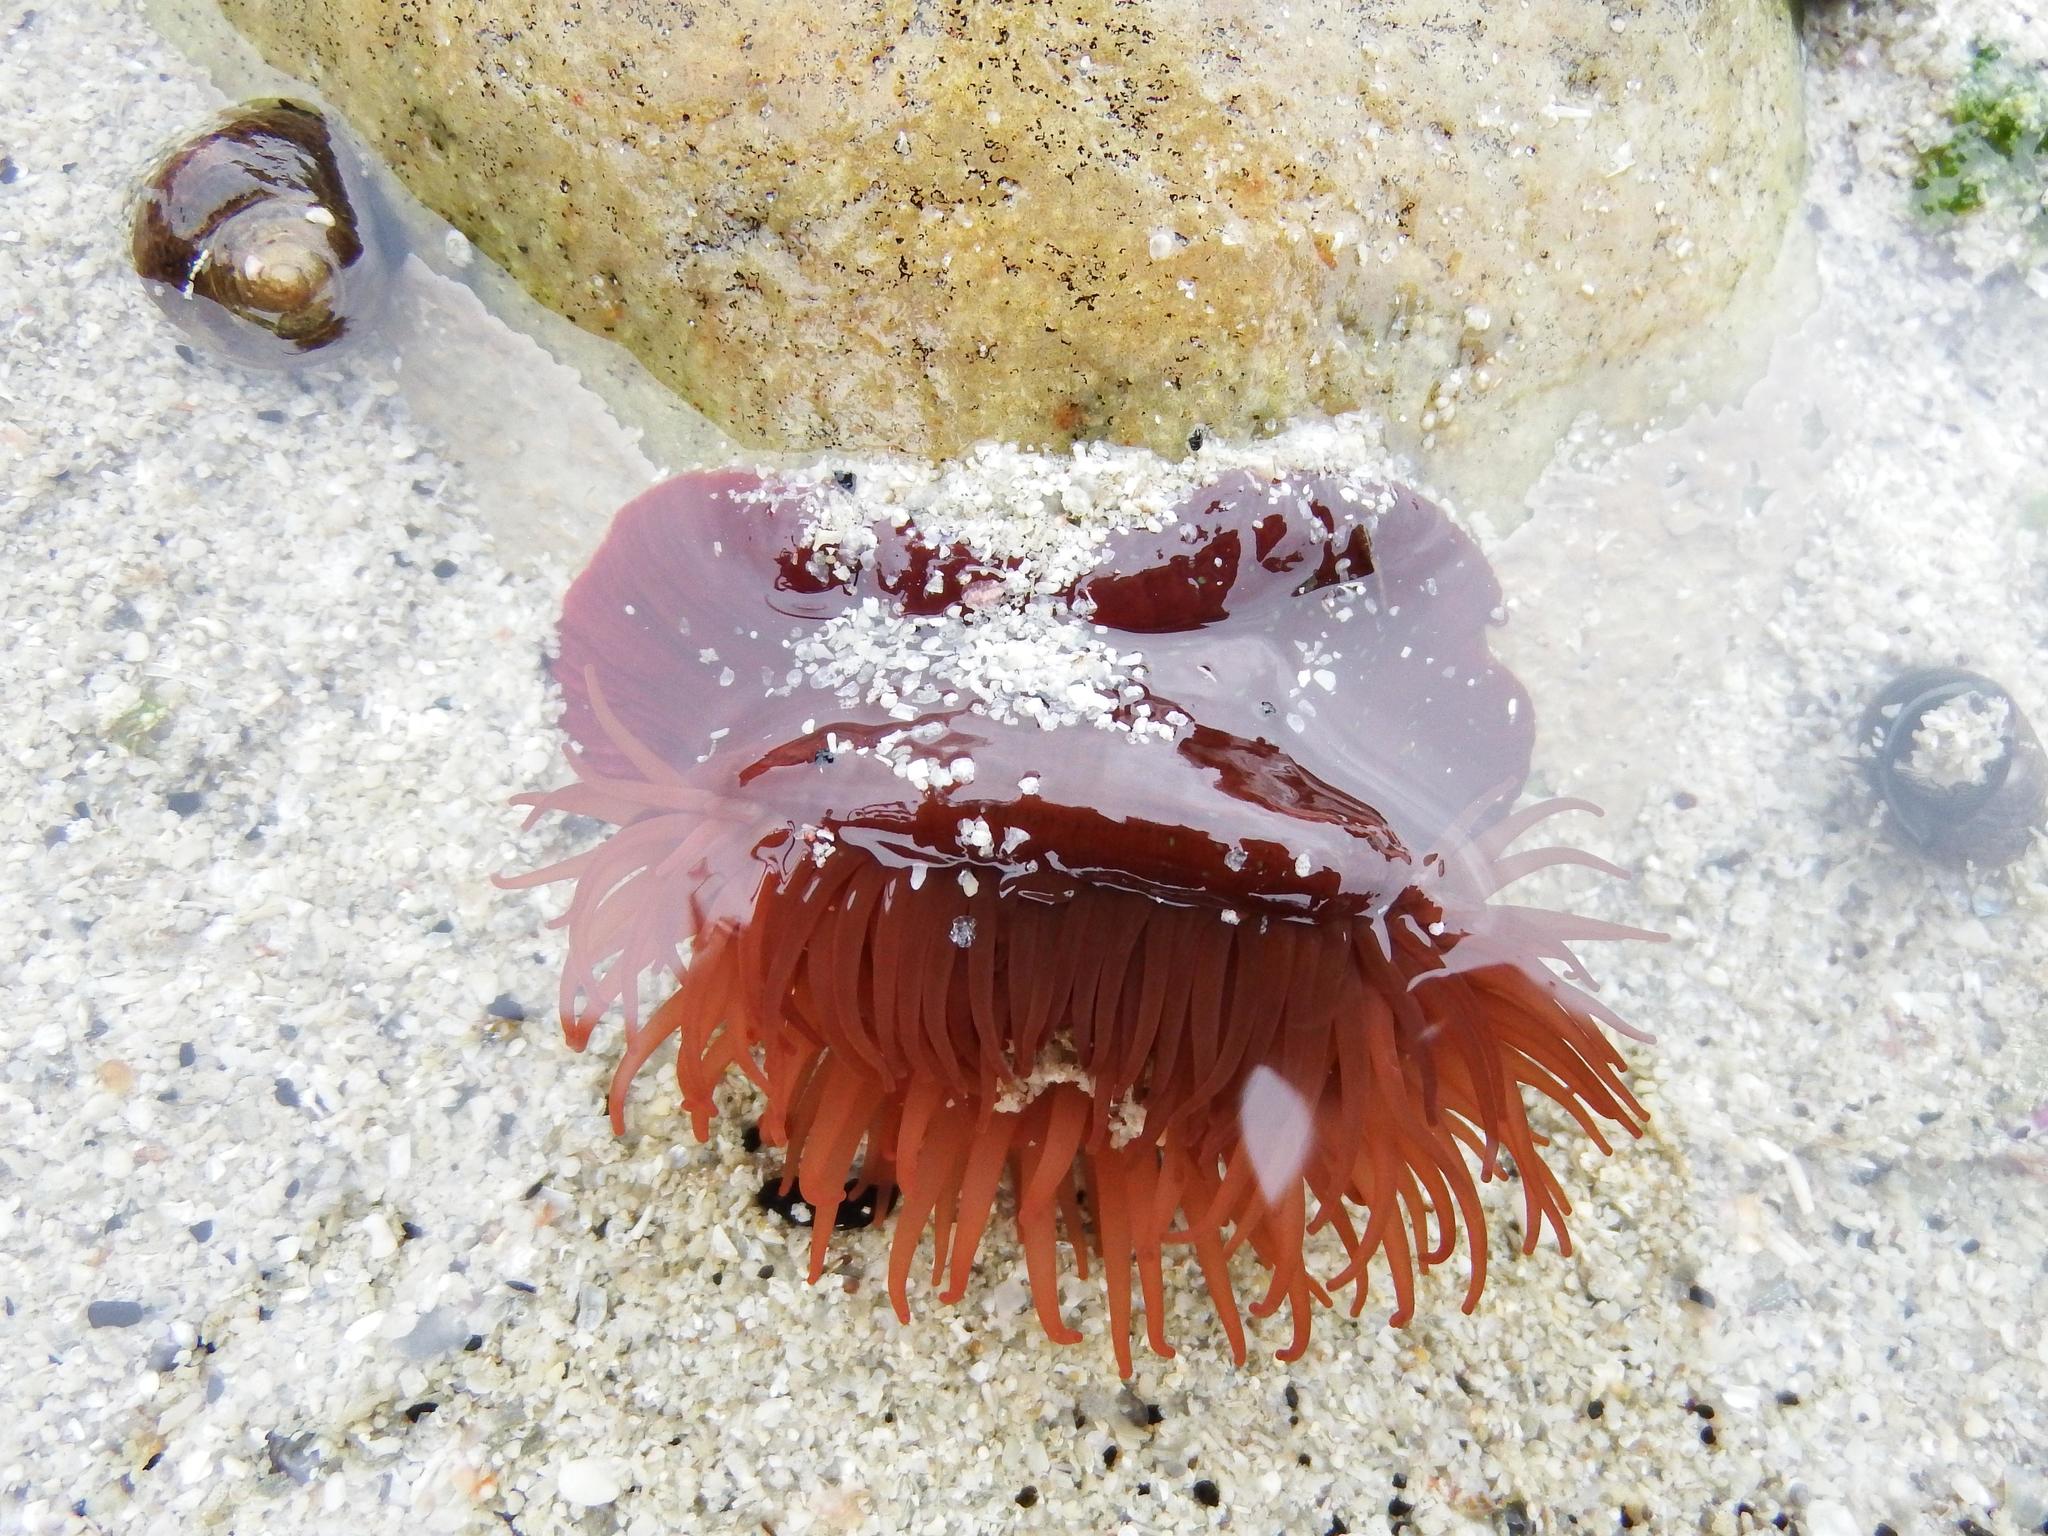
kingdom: Animalia
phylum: Cnidaria
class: Anthozoa
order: Actiniaria
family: Actiniidae
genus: Actinia
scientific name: Actinia equina
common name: Beadlet anemone
